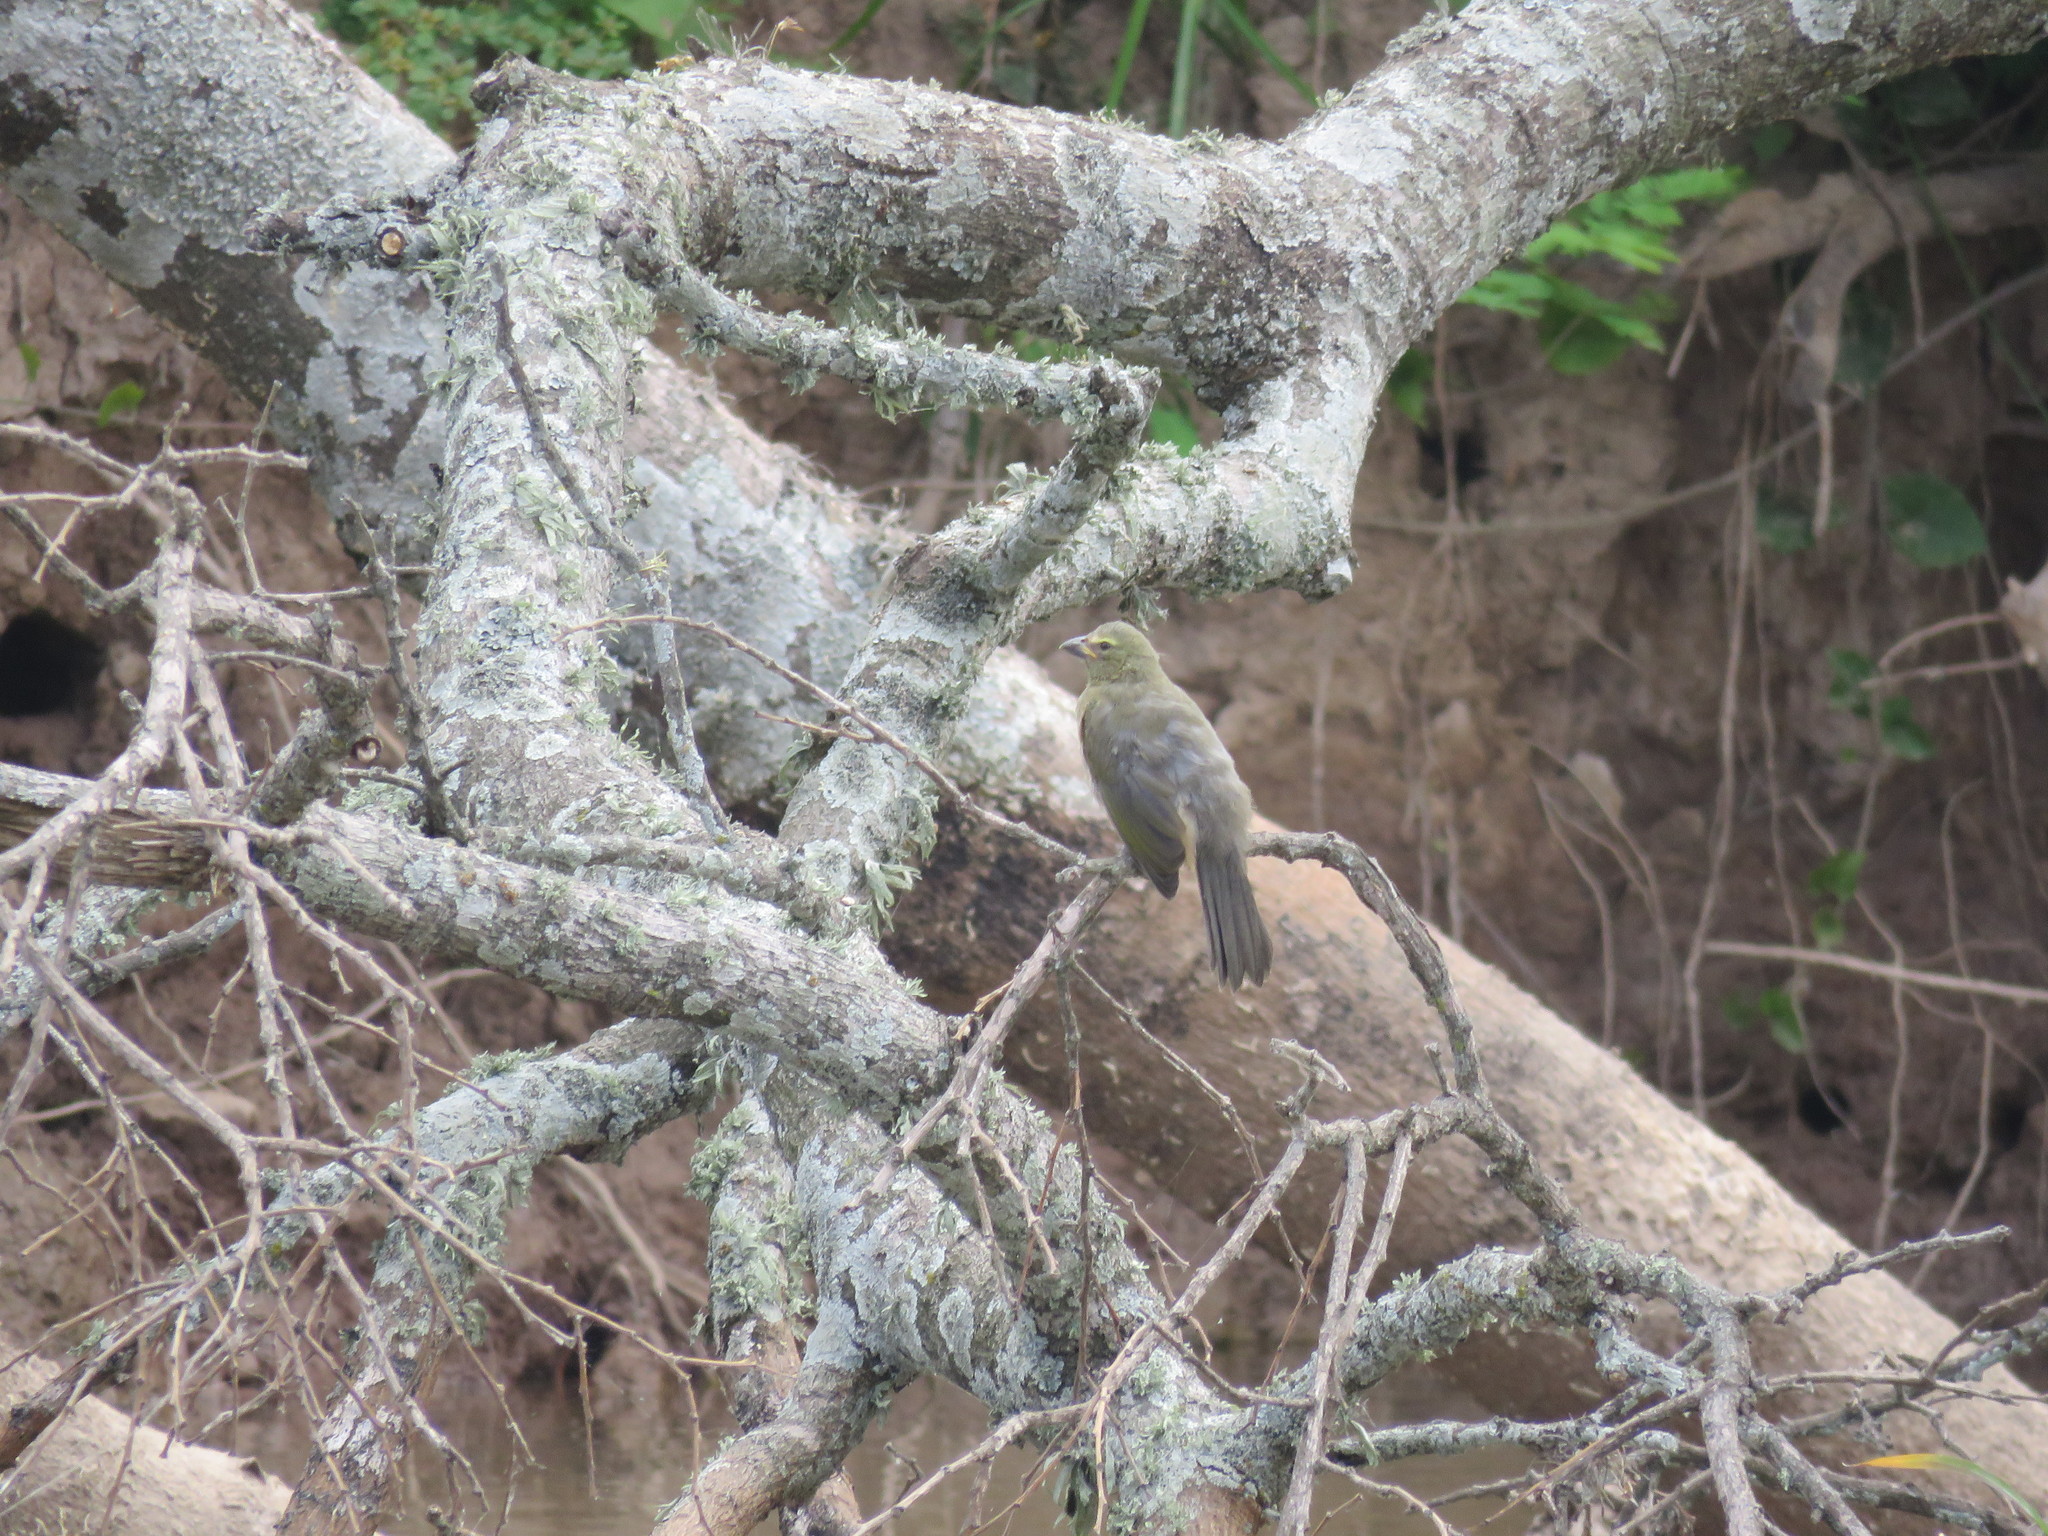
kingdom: Animalia
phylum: Chordata
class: Aves
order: Passeriformes
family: Thraupidae
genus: Saltator
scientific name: Saltator coerulescens
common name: Grayish saltator
